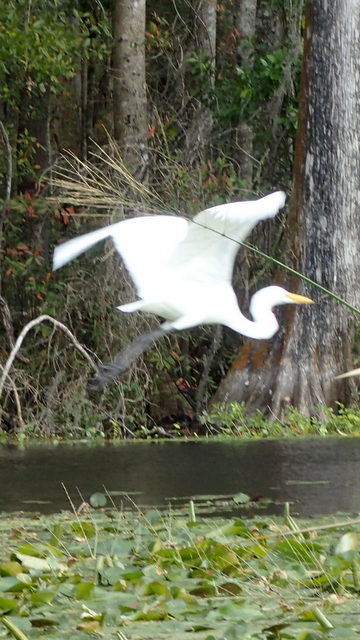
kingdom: Animalia
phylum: Chordata
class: Aves
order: Pelecaniformes
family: Ardeidae
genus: Ardea
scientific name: Ardea alba
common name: Great egret
